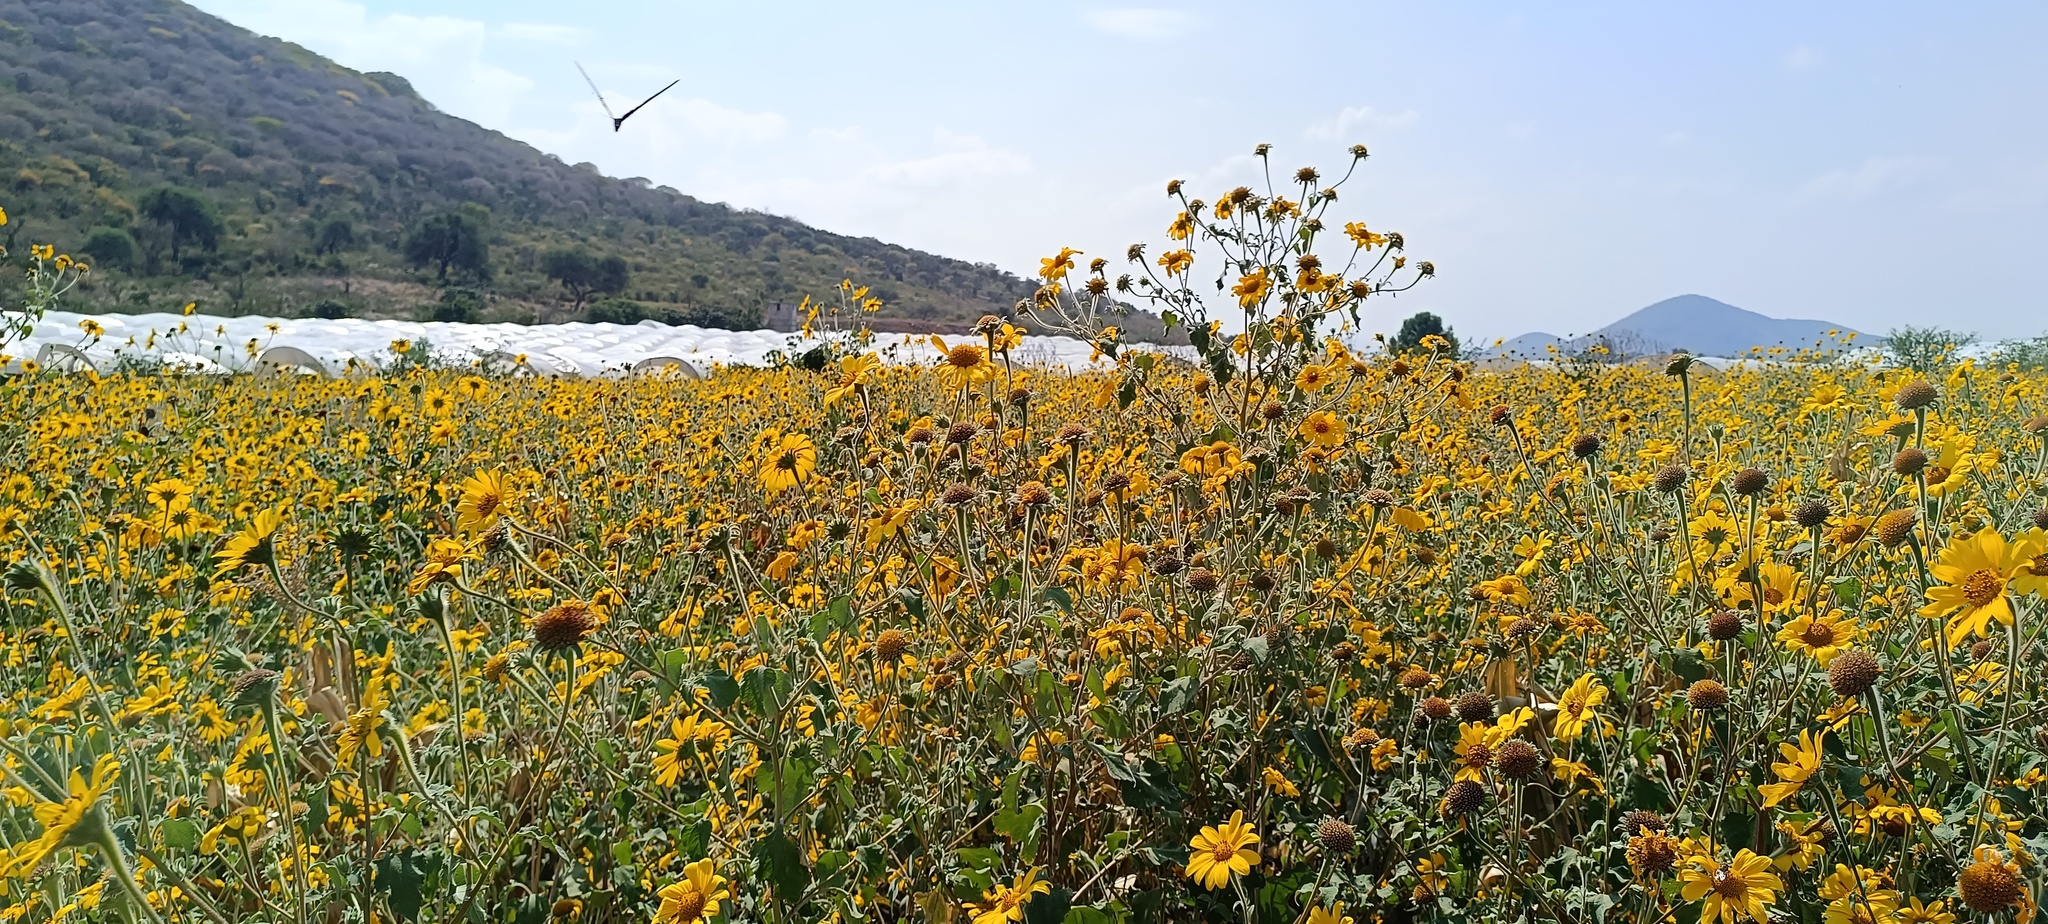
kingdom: Plantae
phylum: Tracheophyta
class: Magnoliopsida
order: Asterales
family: Asteraceae
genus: Tithonia
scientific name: Tithonia tubaeformis
